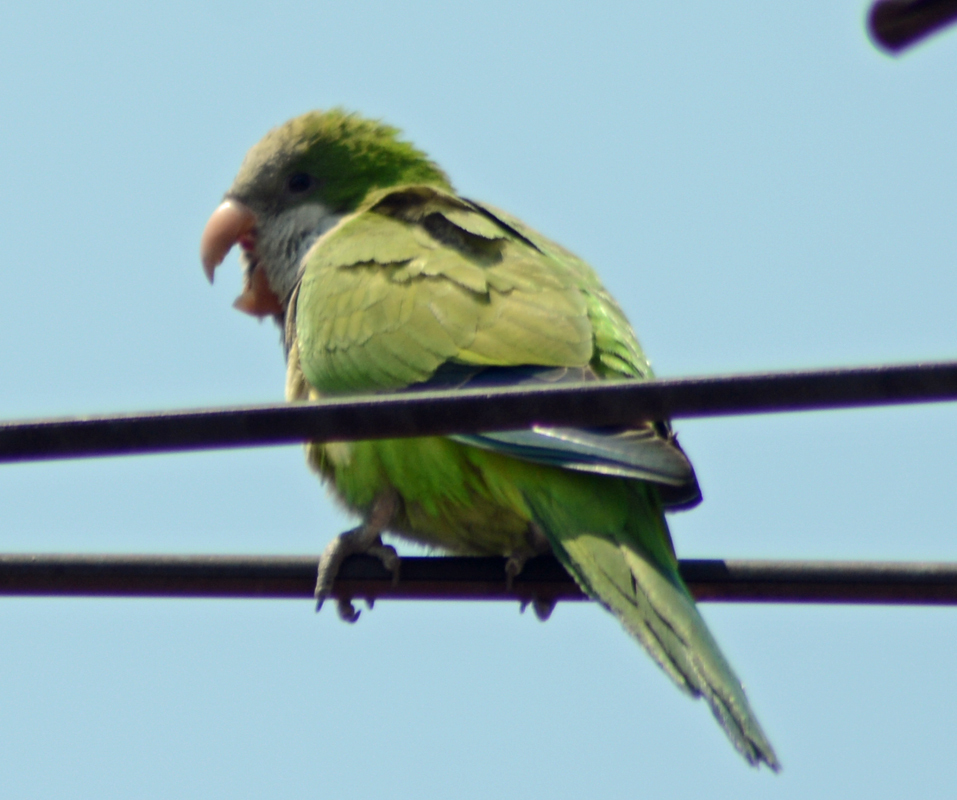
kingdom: Animalia
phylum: Chordata
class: Aves
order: Psittaciformes
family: Psittacidae
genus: Myiopsitta
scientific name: Myiopsitta monachus
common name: Monk parakeet
